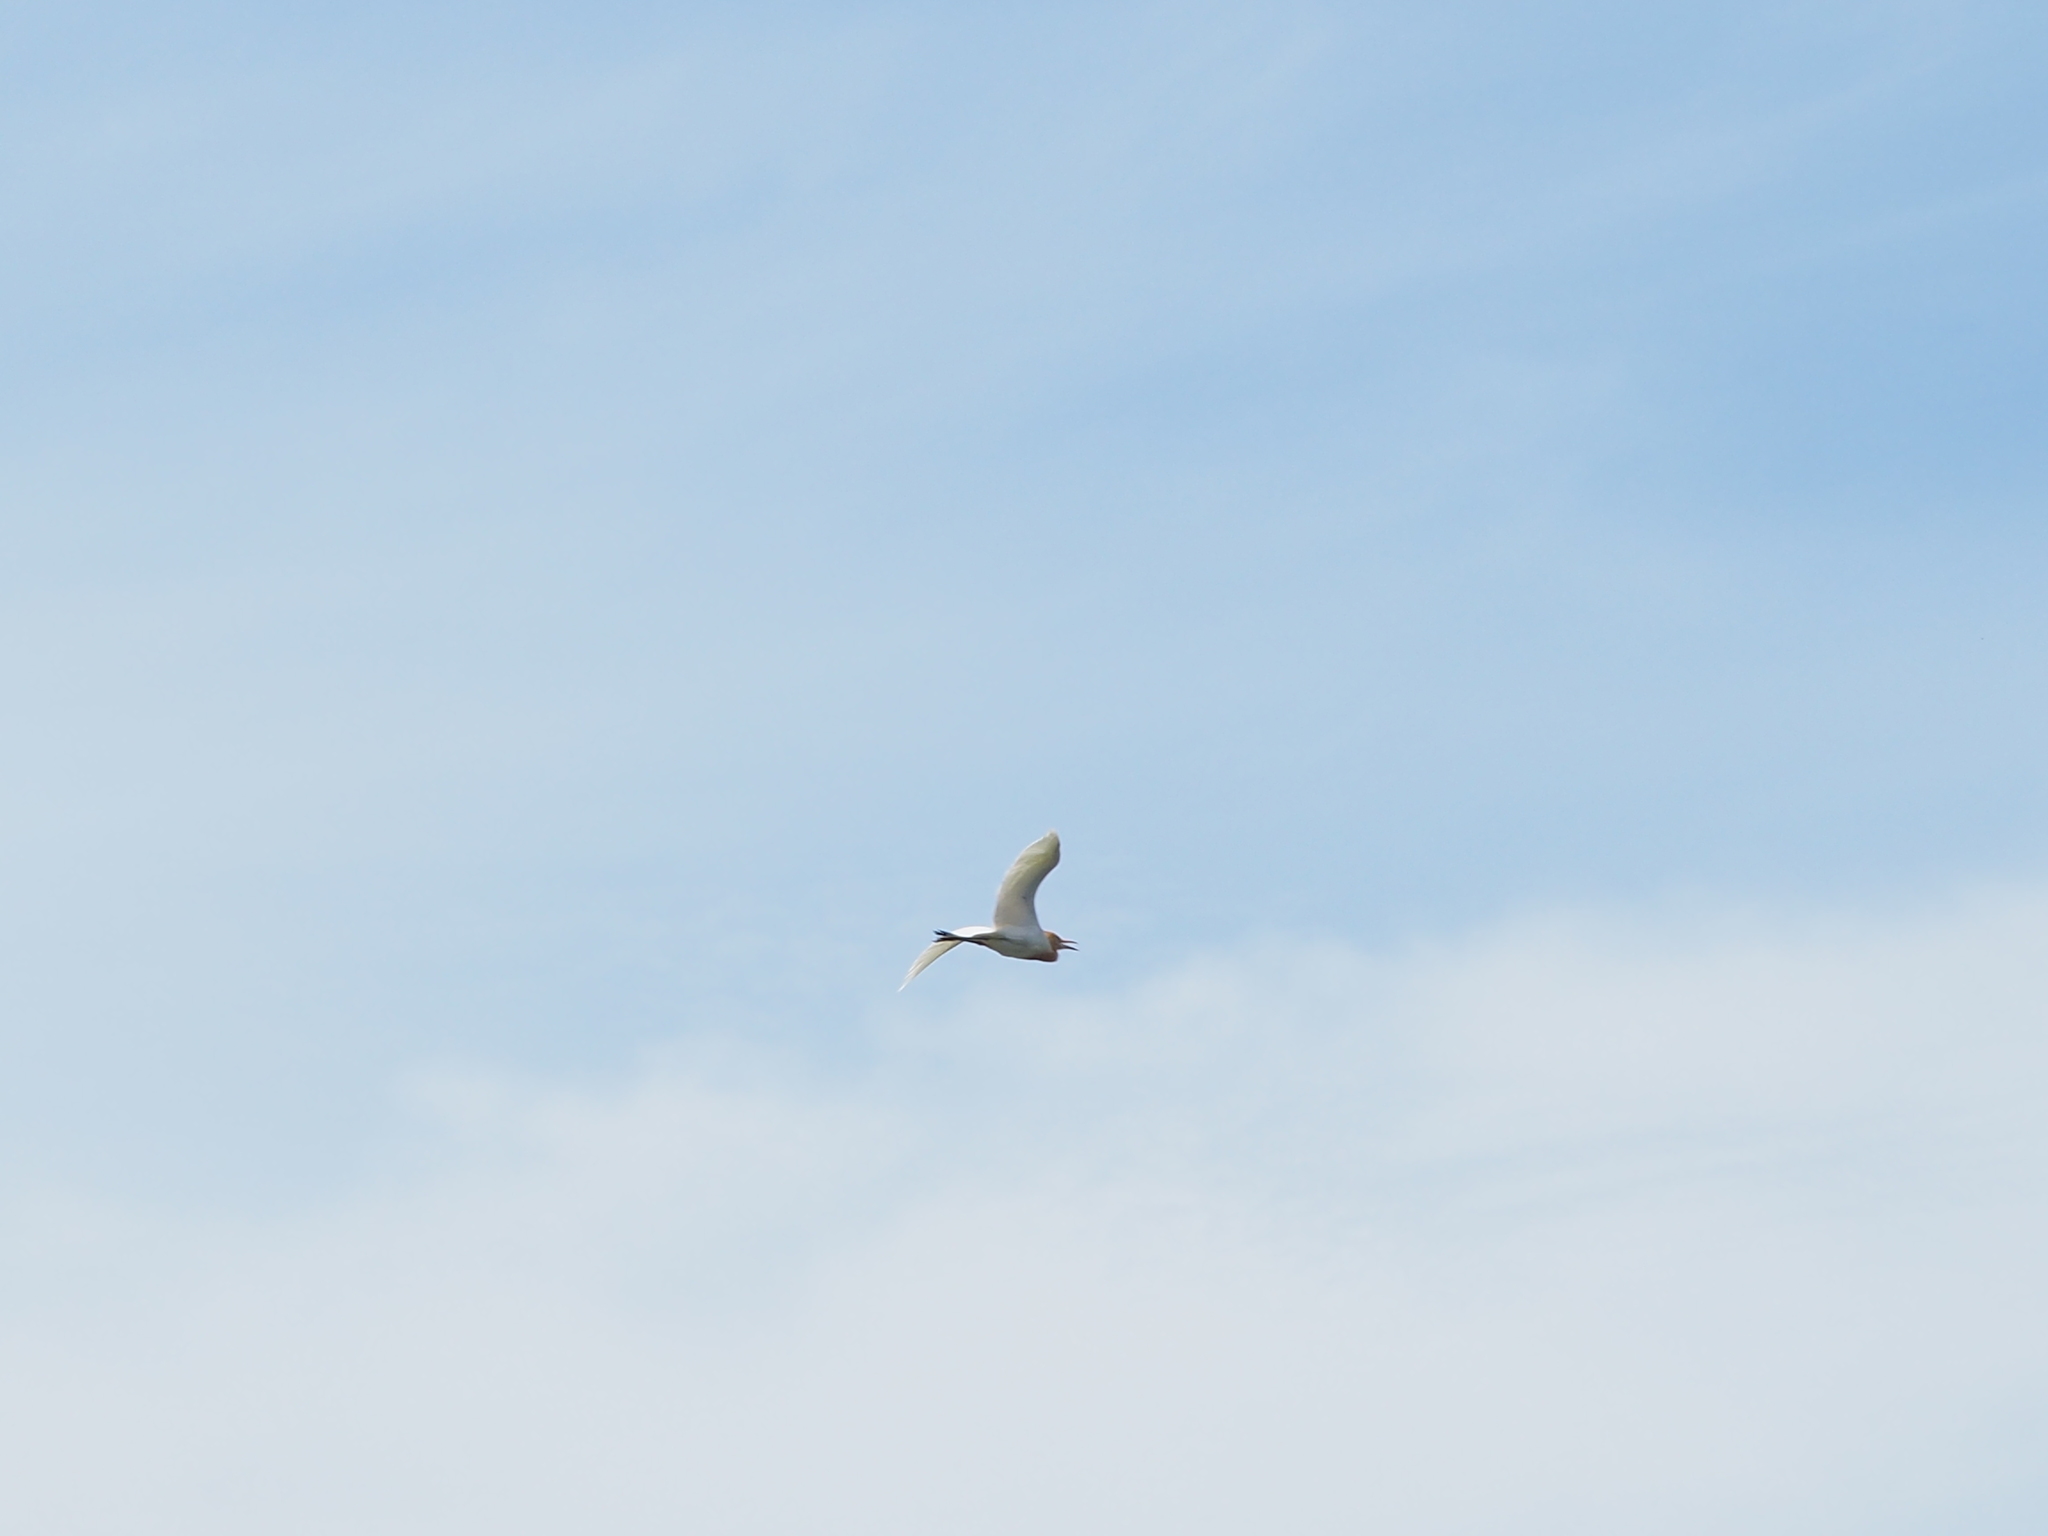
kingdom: Animalia
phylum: Chordata
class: Aves
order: Pelecaniformes
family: Ardeidae
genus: Bubulcus
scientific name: Bubulcus coromandus
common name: Eastern cattle egret
